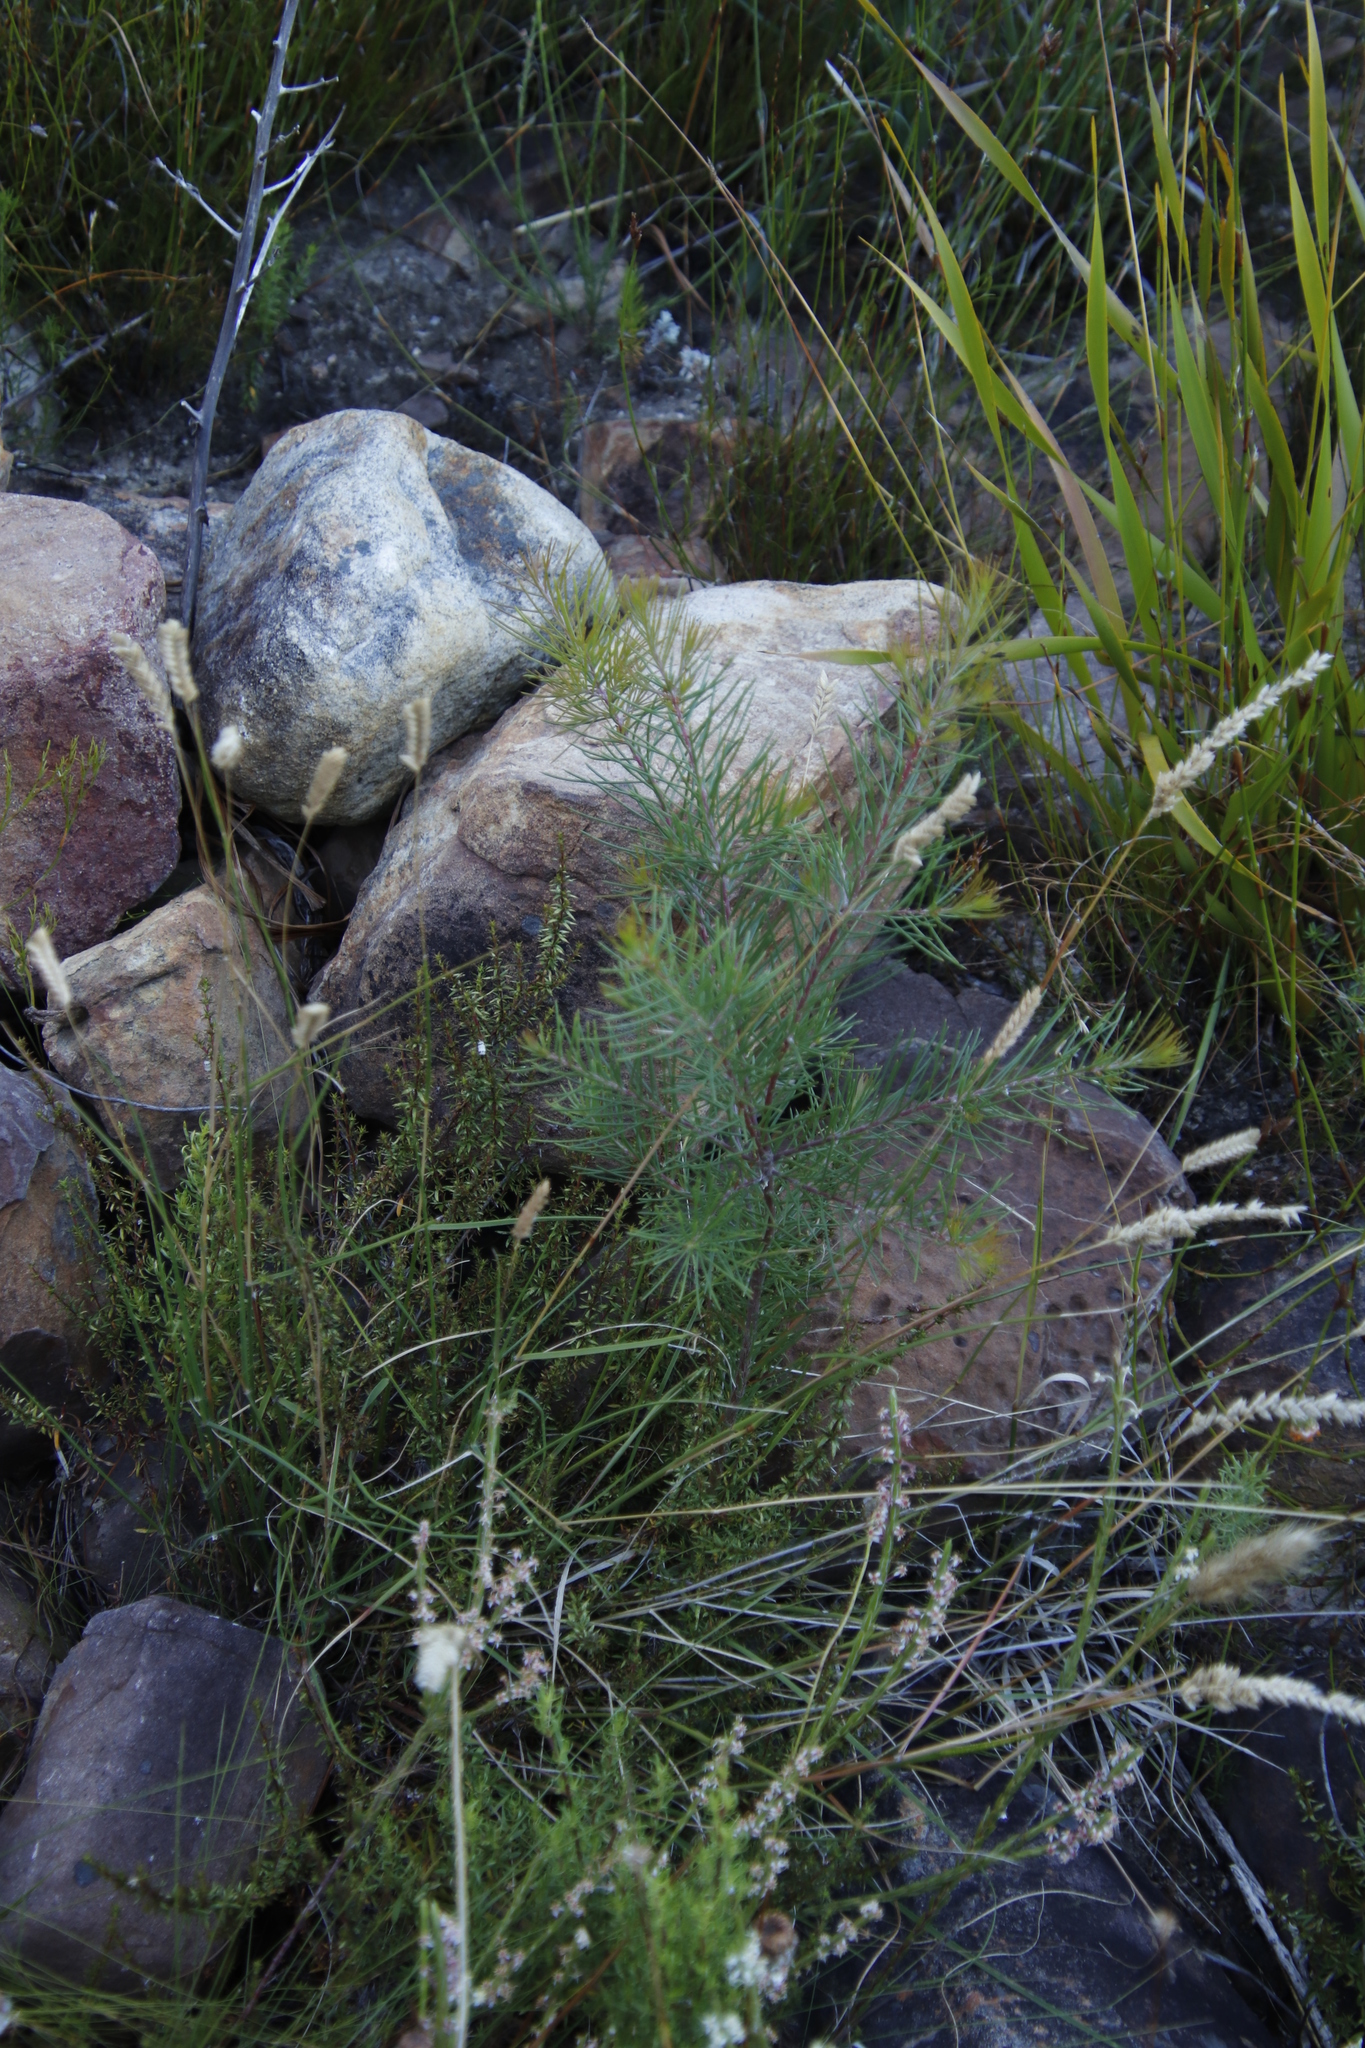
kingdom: Plantae
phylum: Tracheophyta
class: Magnoliopsida
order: Proteales
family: Proteaceae
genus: Hakea
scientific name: Hakea sericea
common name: Needle bush
